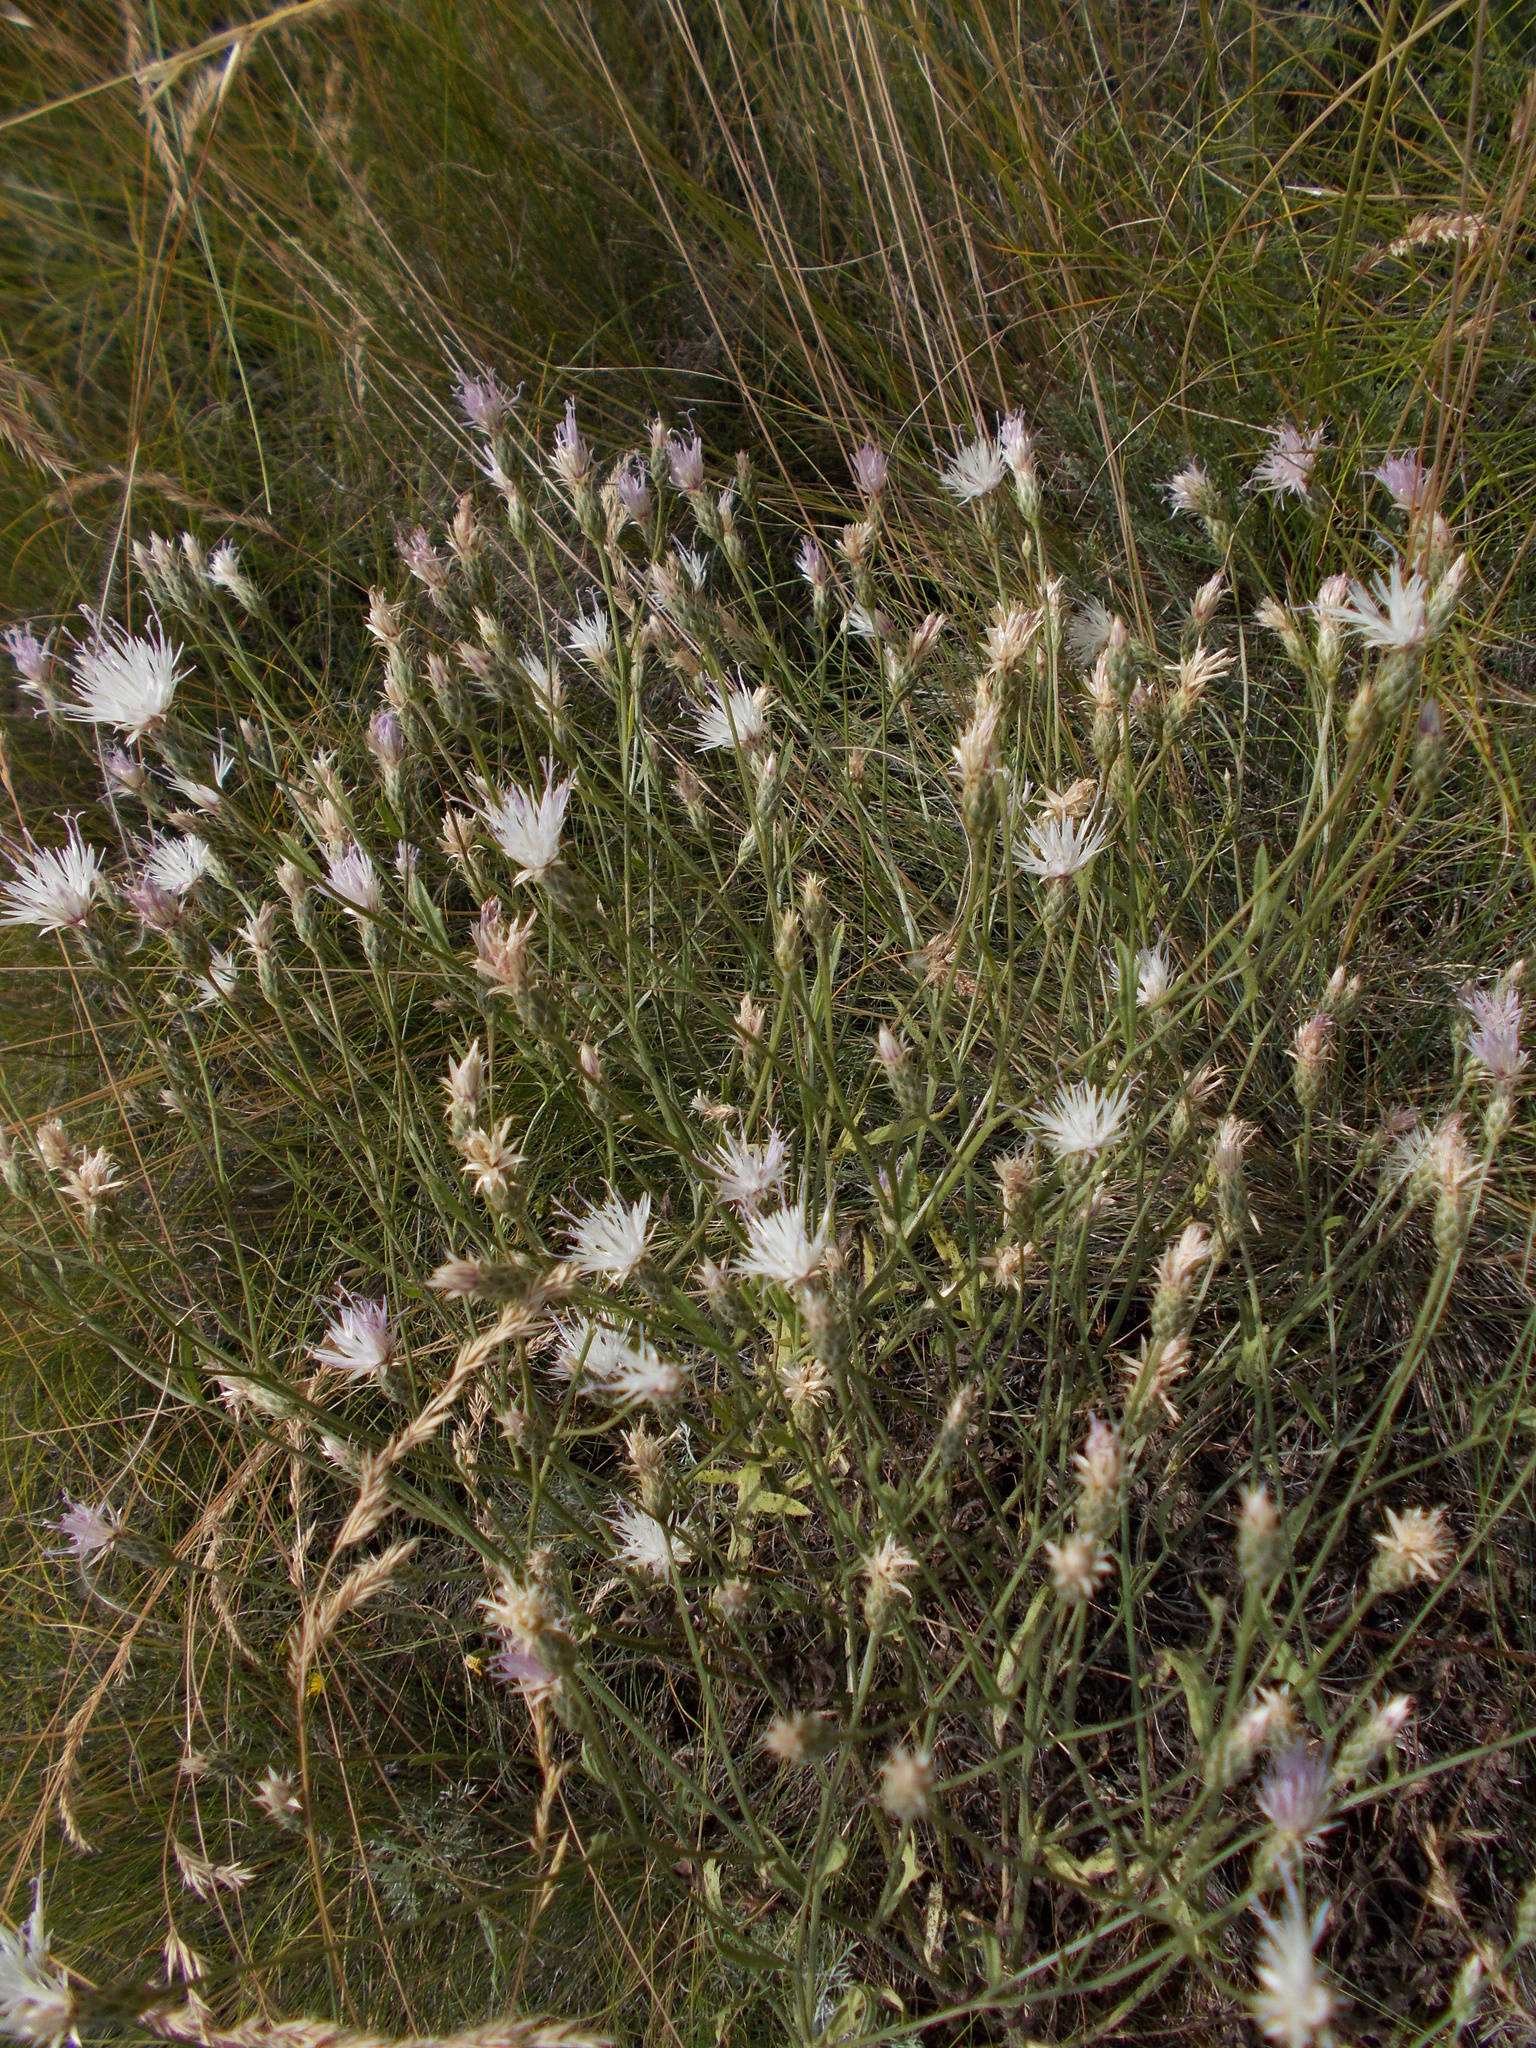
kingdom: Plantae
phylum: Tracheophyta
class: Magnoliopsida
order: Asterales
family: Asteraceae
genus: Klasea
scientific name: Klasea erucifolia
